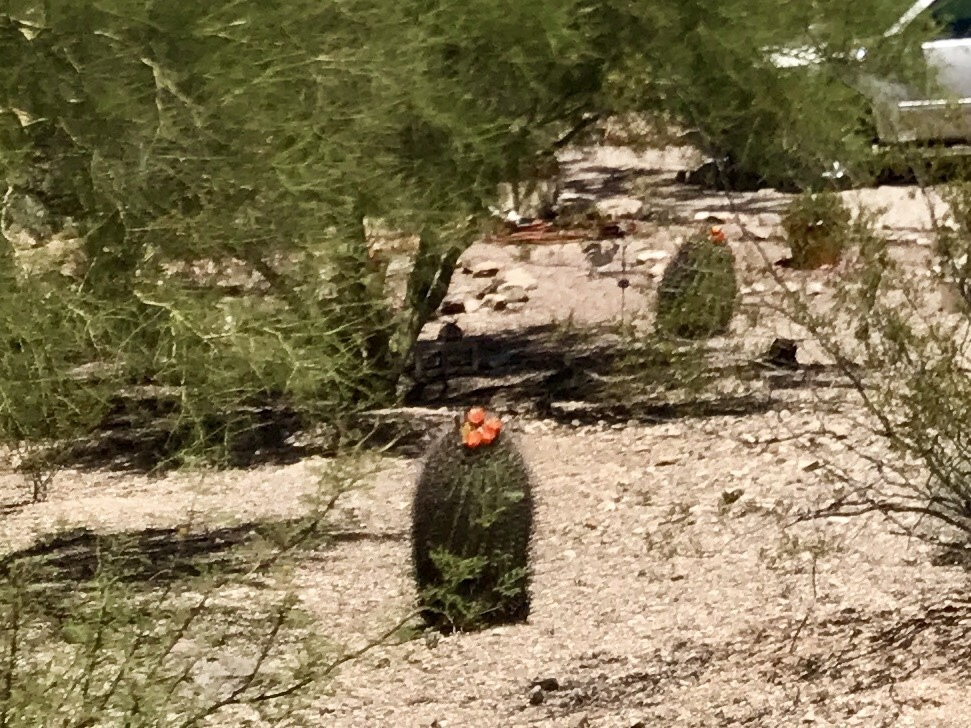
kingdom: Plantae
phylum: Tracheophyta
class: Magnoliopsida
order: Caryophyllales
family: Cactaceae
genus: Ferocactus
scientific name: Ferocactus wislizeni
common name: Candy barrel cactus
